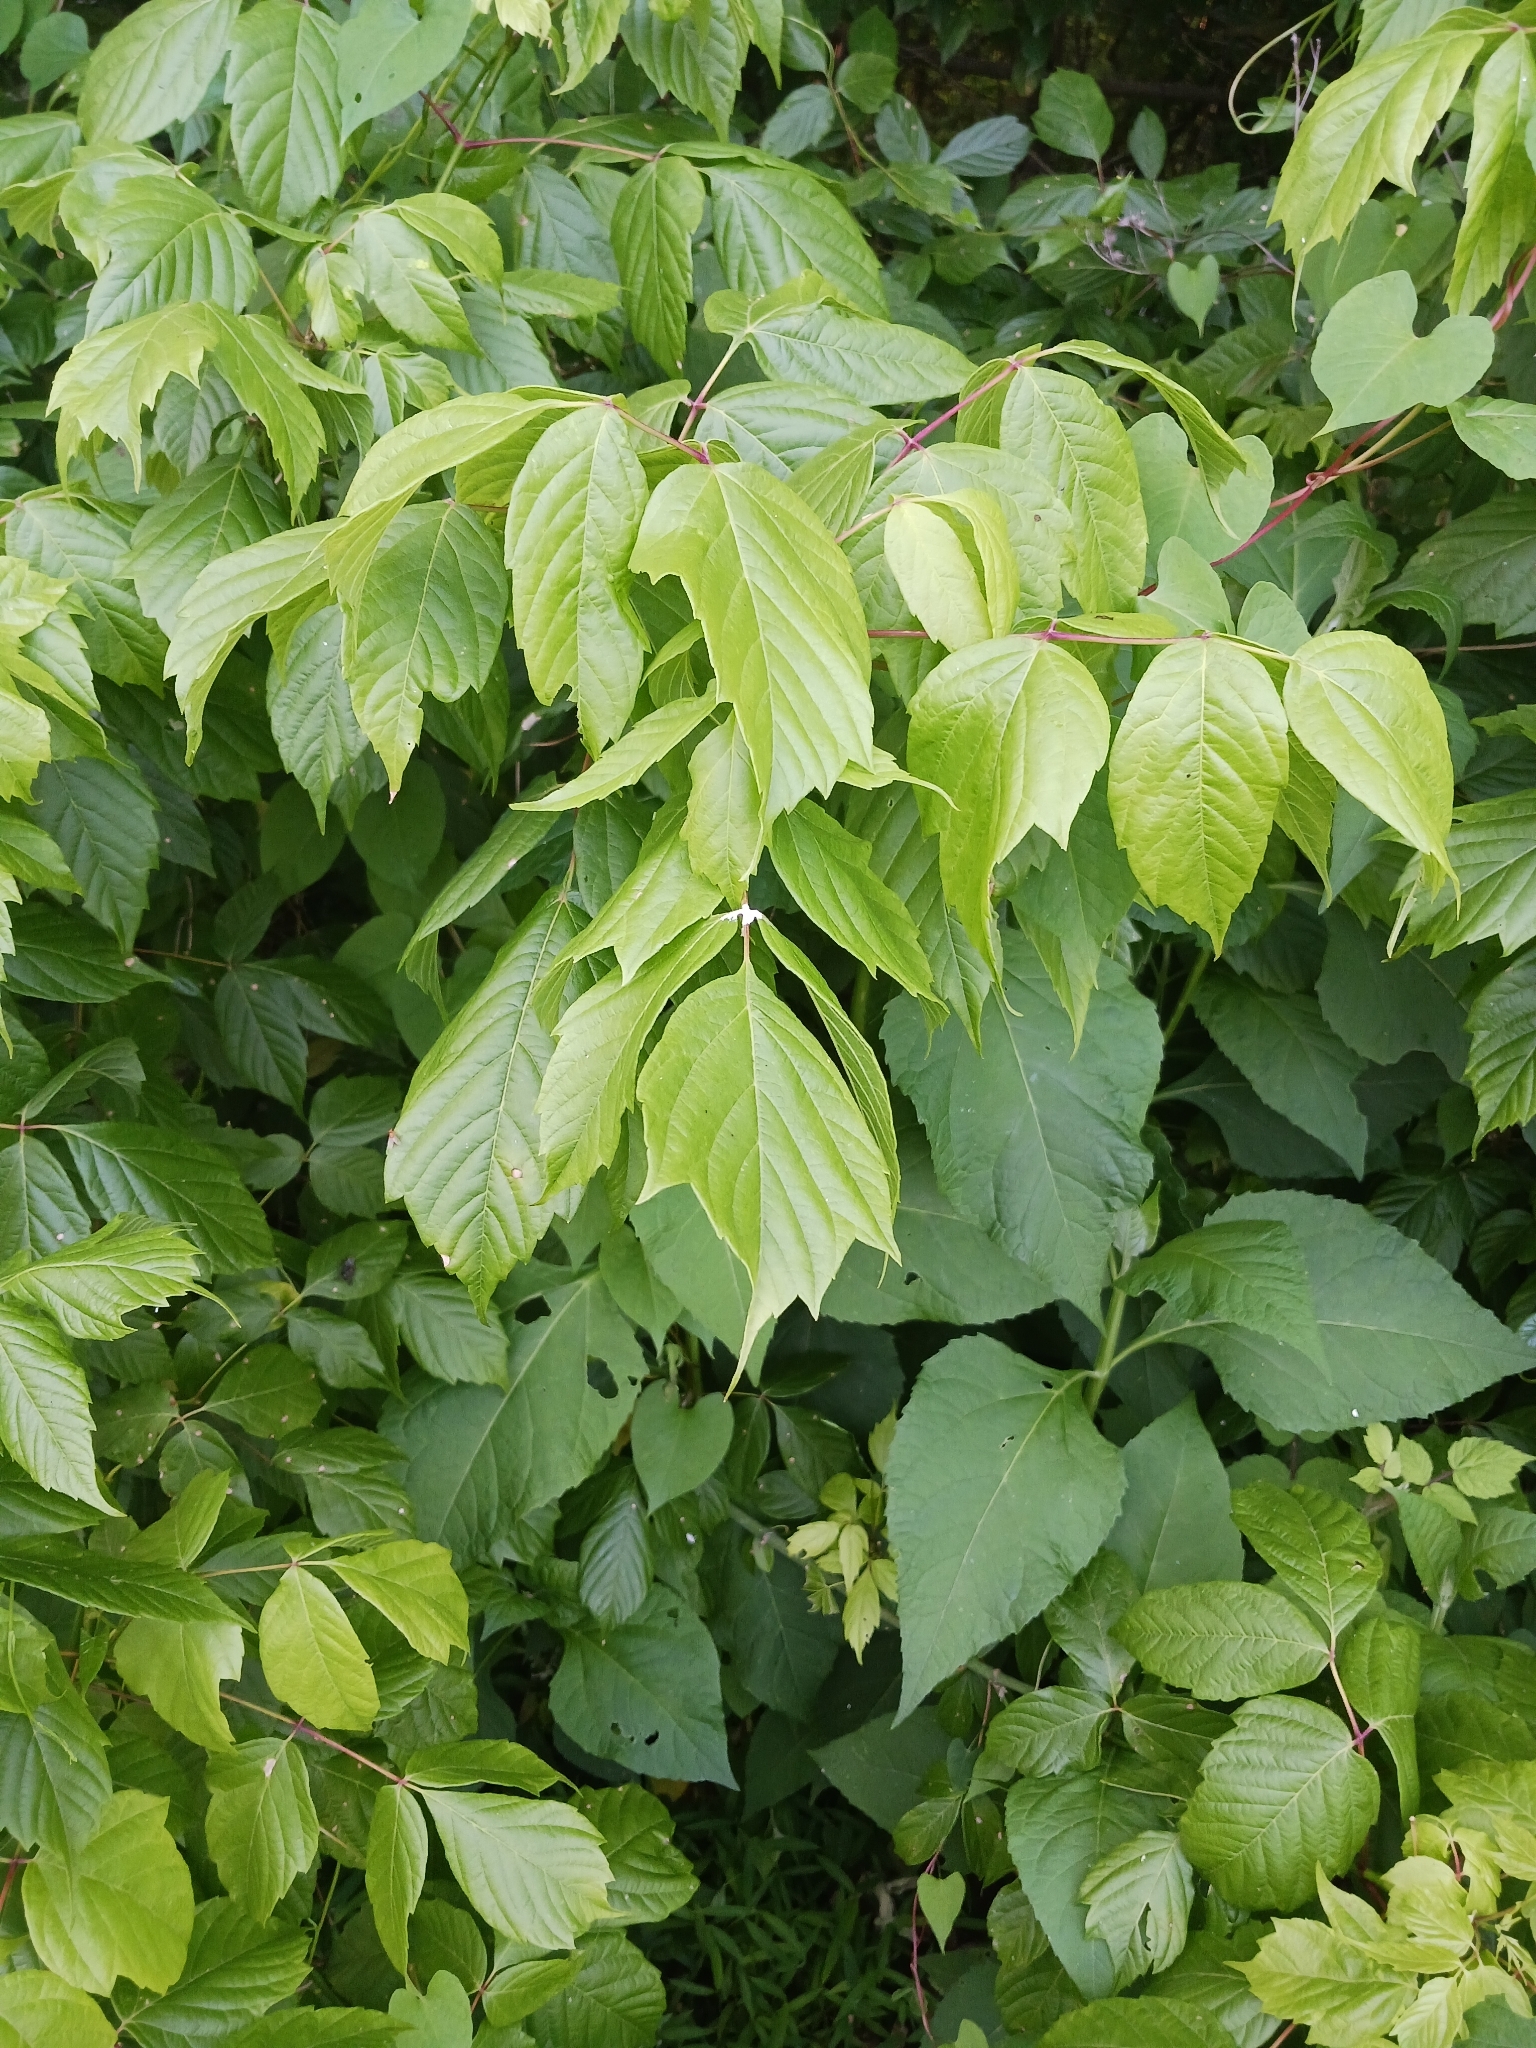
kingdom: Plantae
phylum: Tracheophyta
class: Magnoliopsida
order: Sapindales
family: Sapindaceae
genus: Acer
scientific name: Acer negundo
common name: Ashleaf maple
